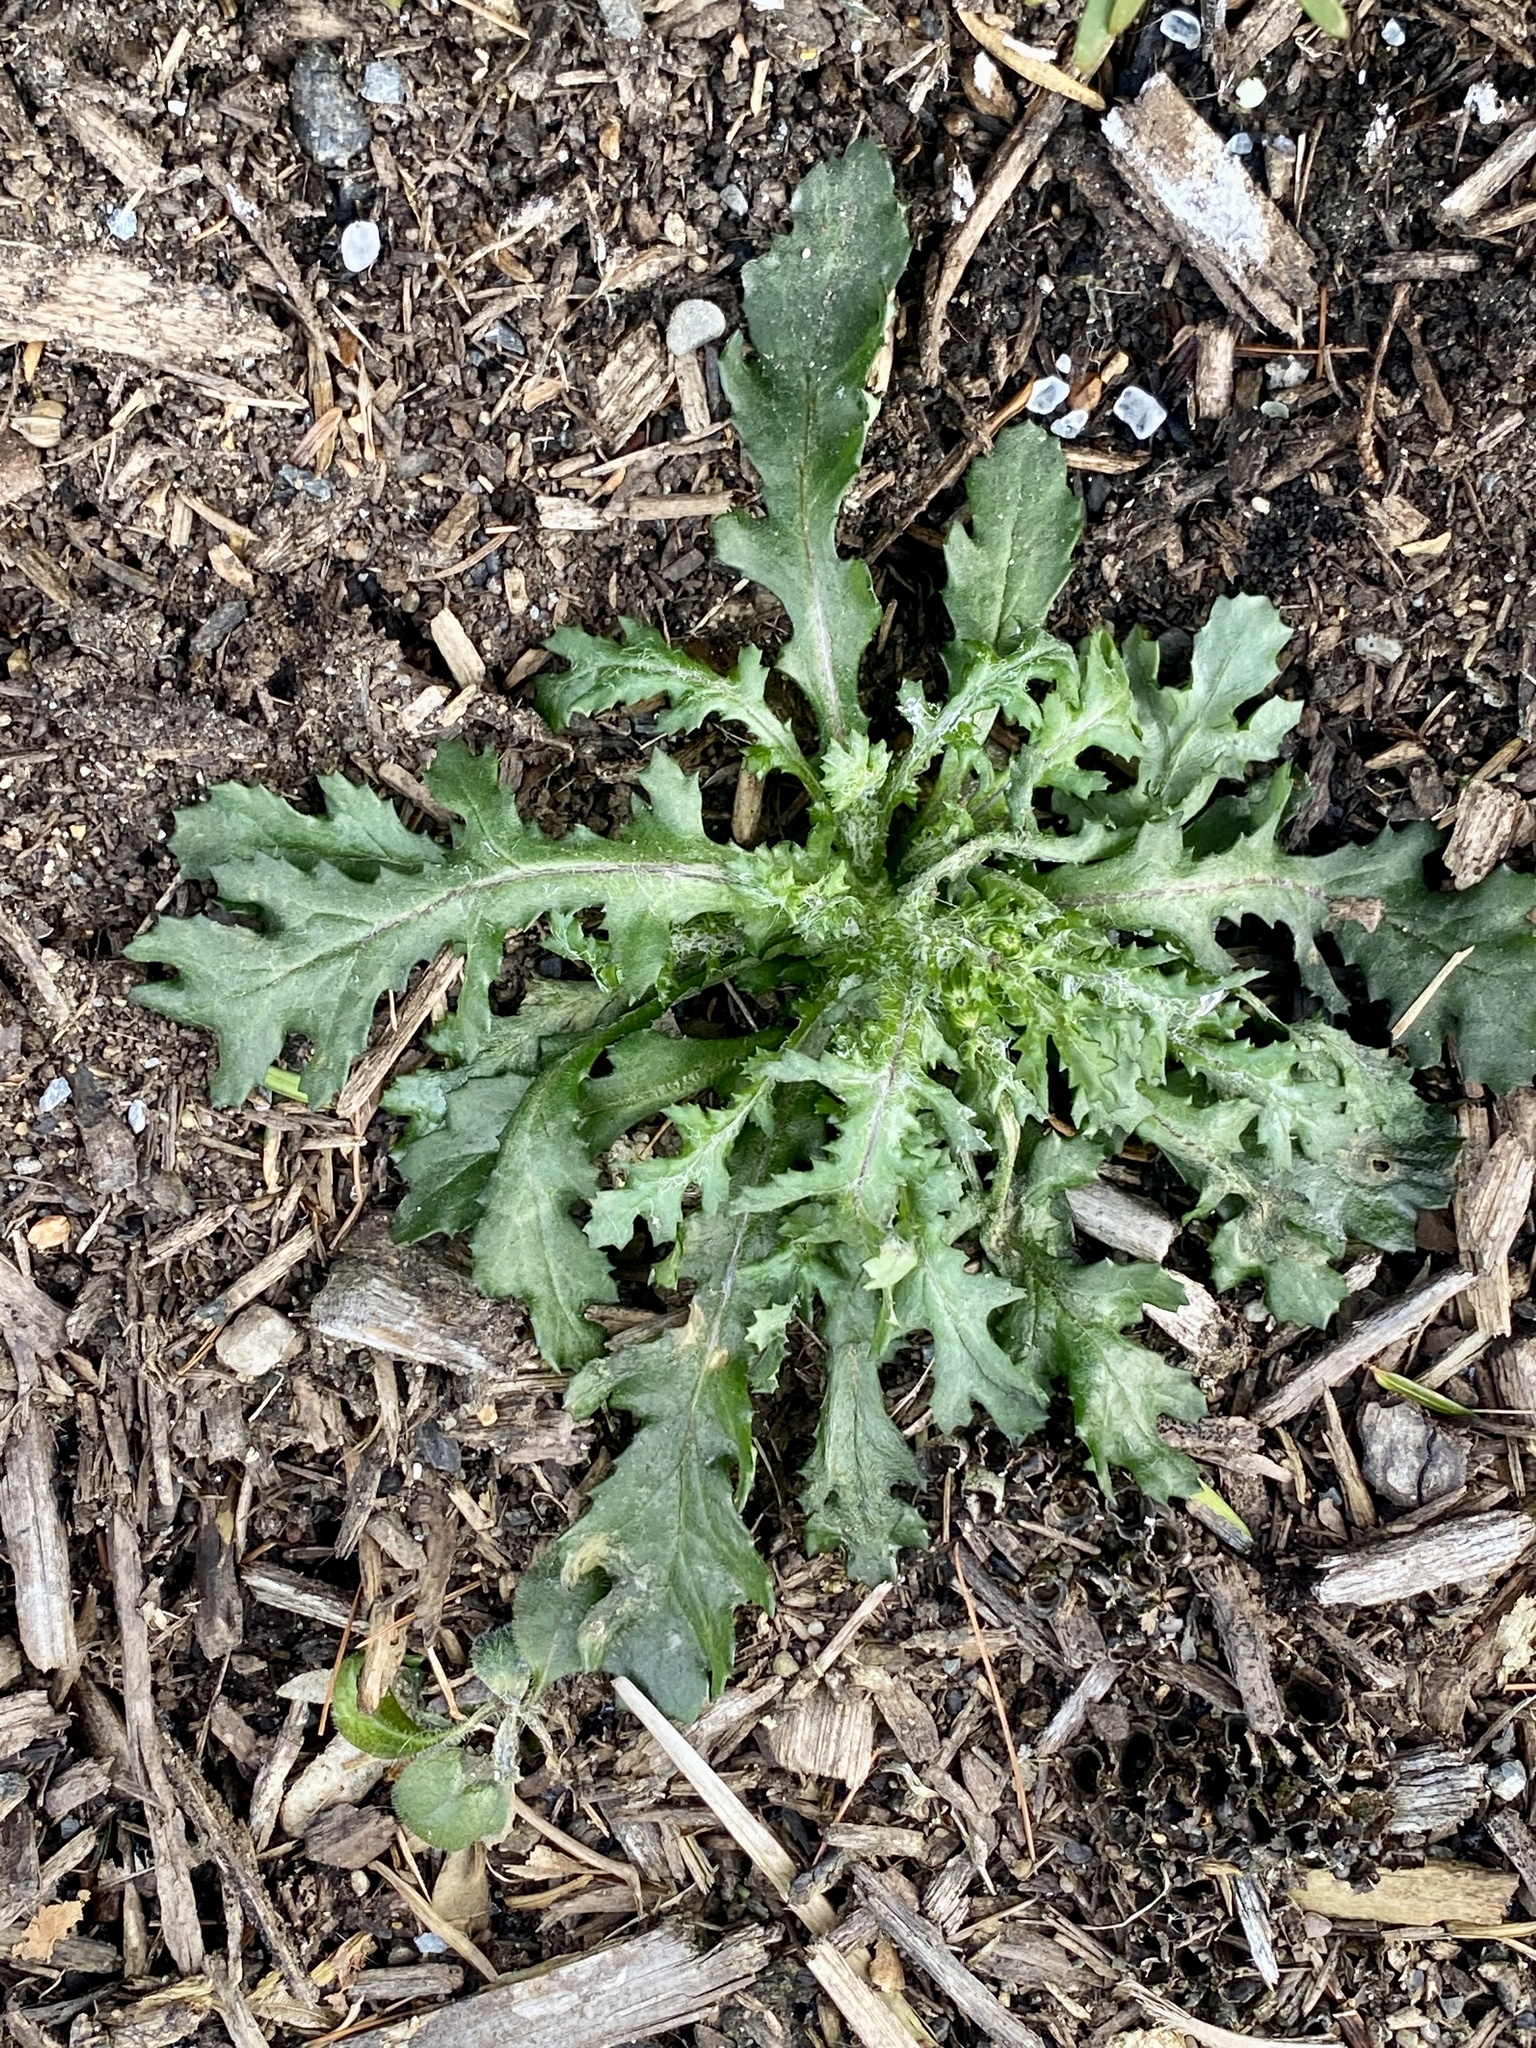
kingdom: Plantae
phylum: Tracheophyta
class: Magnoliopsida
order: Asterales
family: Asteraceae
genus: Senecio
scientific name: Senecio vulgaris
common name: Old-man-in-the-spring
